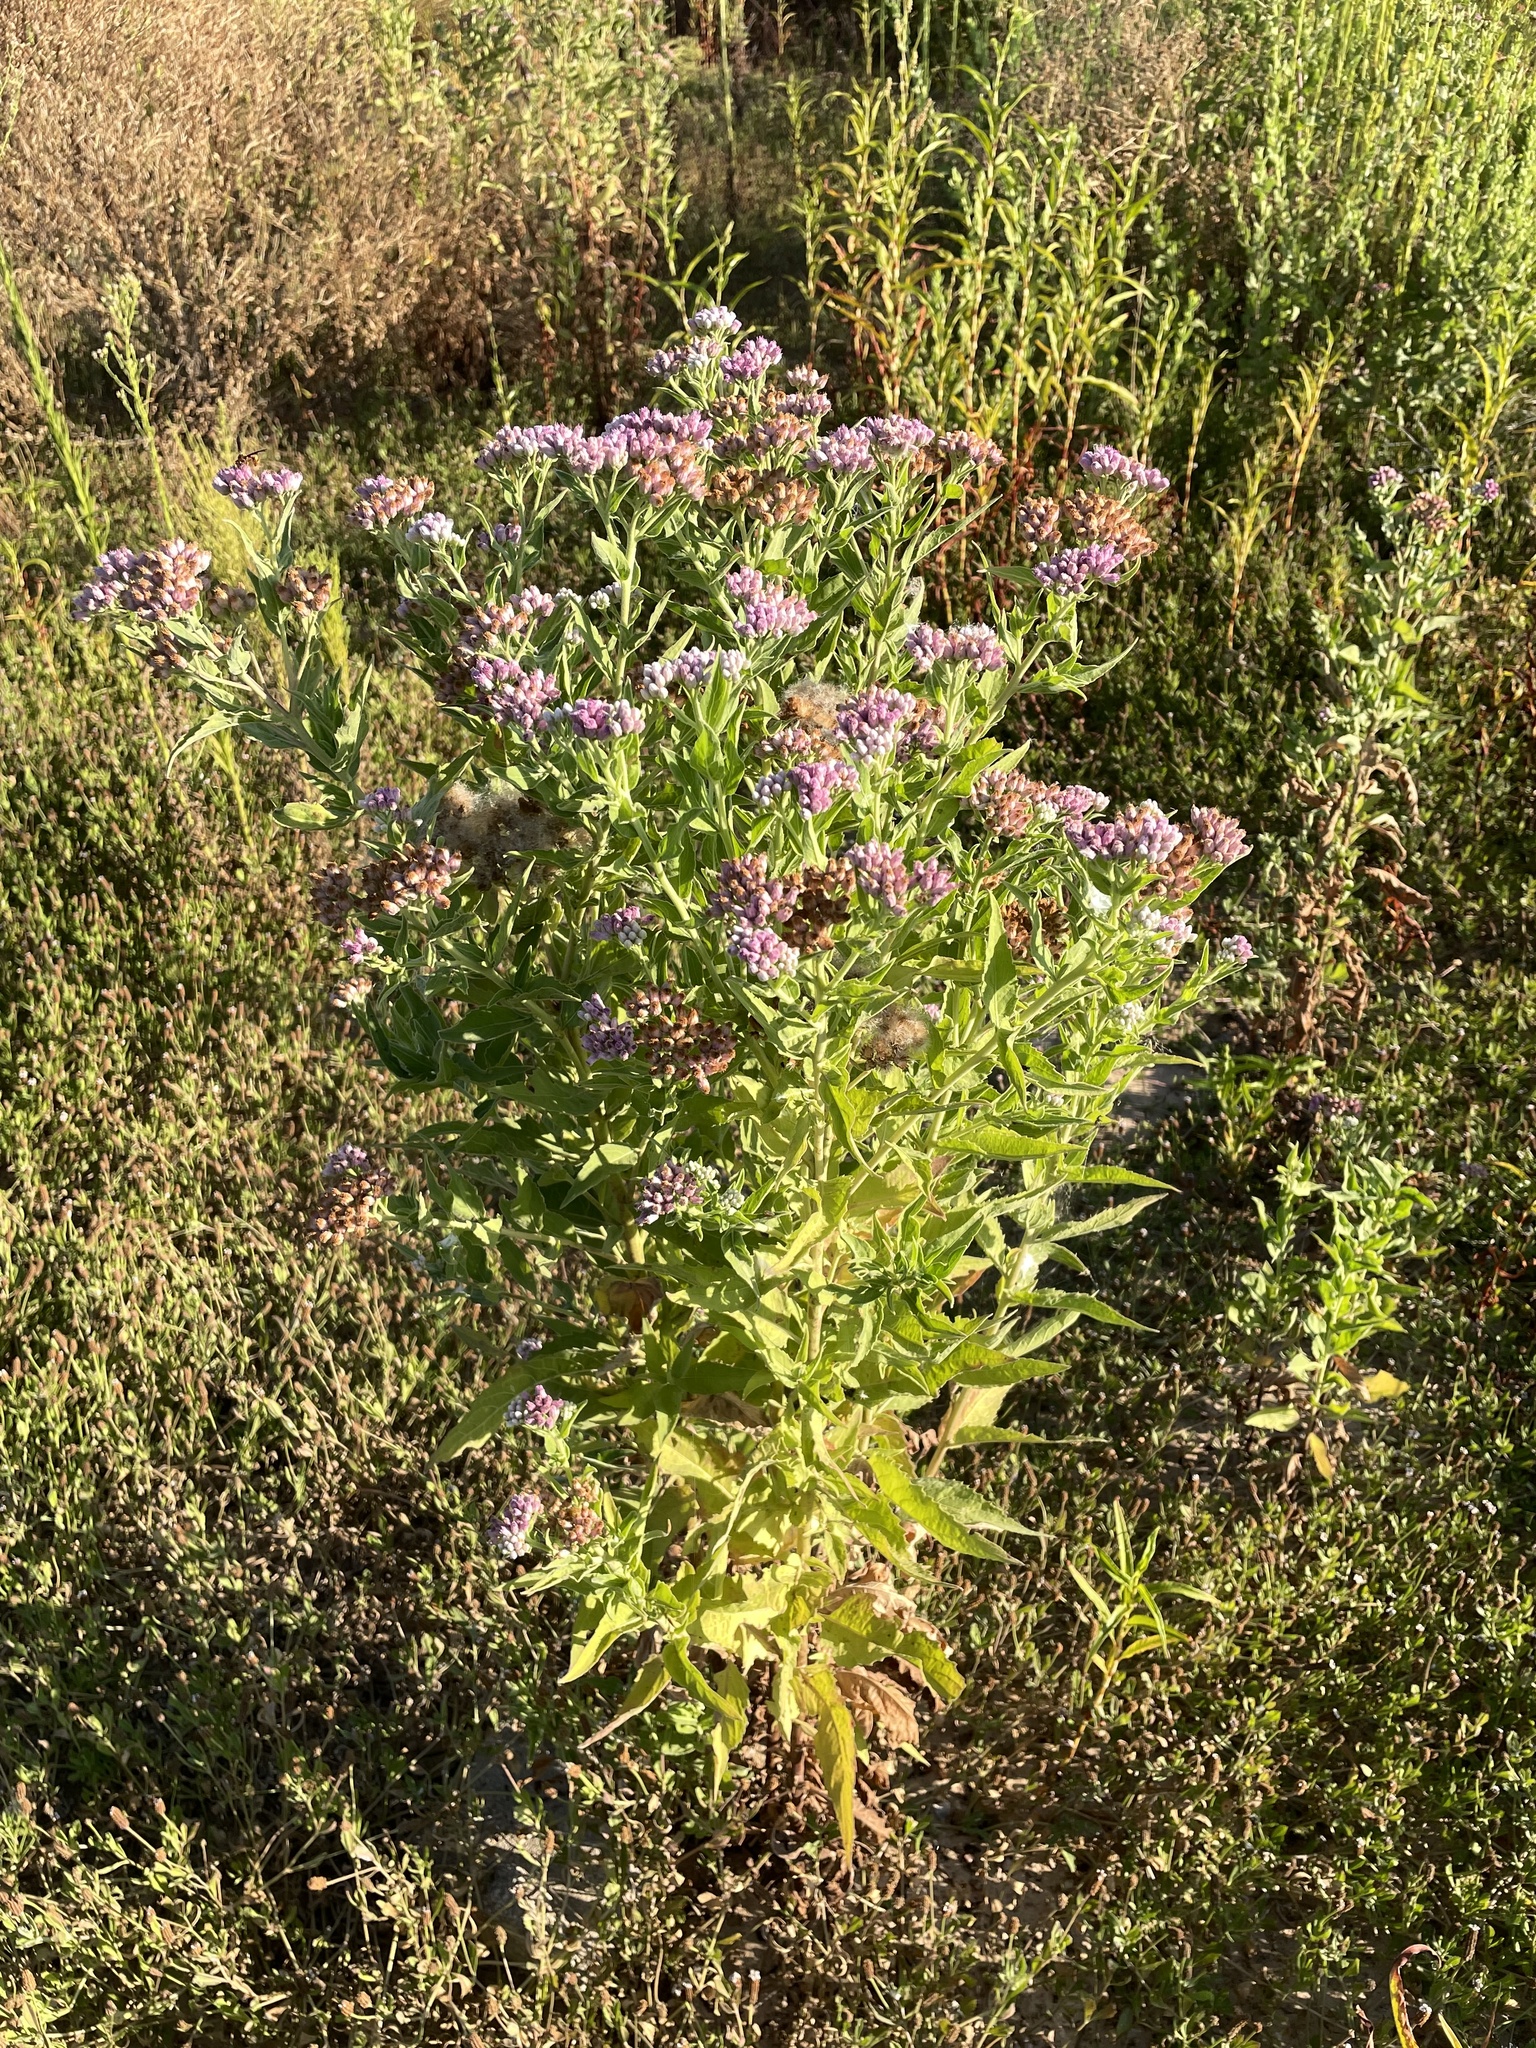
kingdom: Plantae
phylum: Tracheophyta
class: Magnoliopsida
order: Asterales
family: Asteraceae
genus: Pluchea
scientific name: Pluchea odorata
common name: Saltmarsh fleabane
